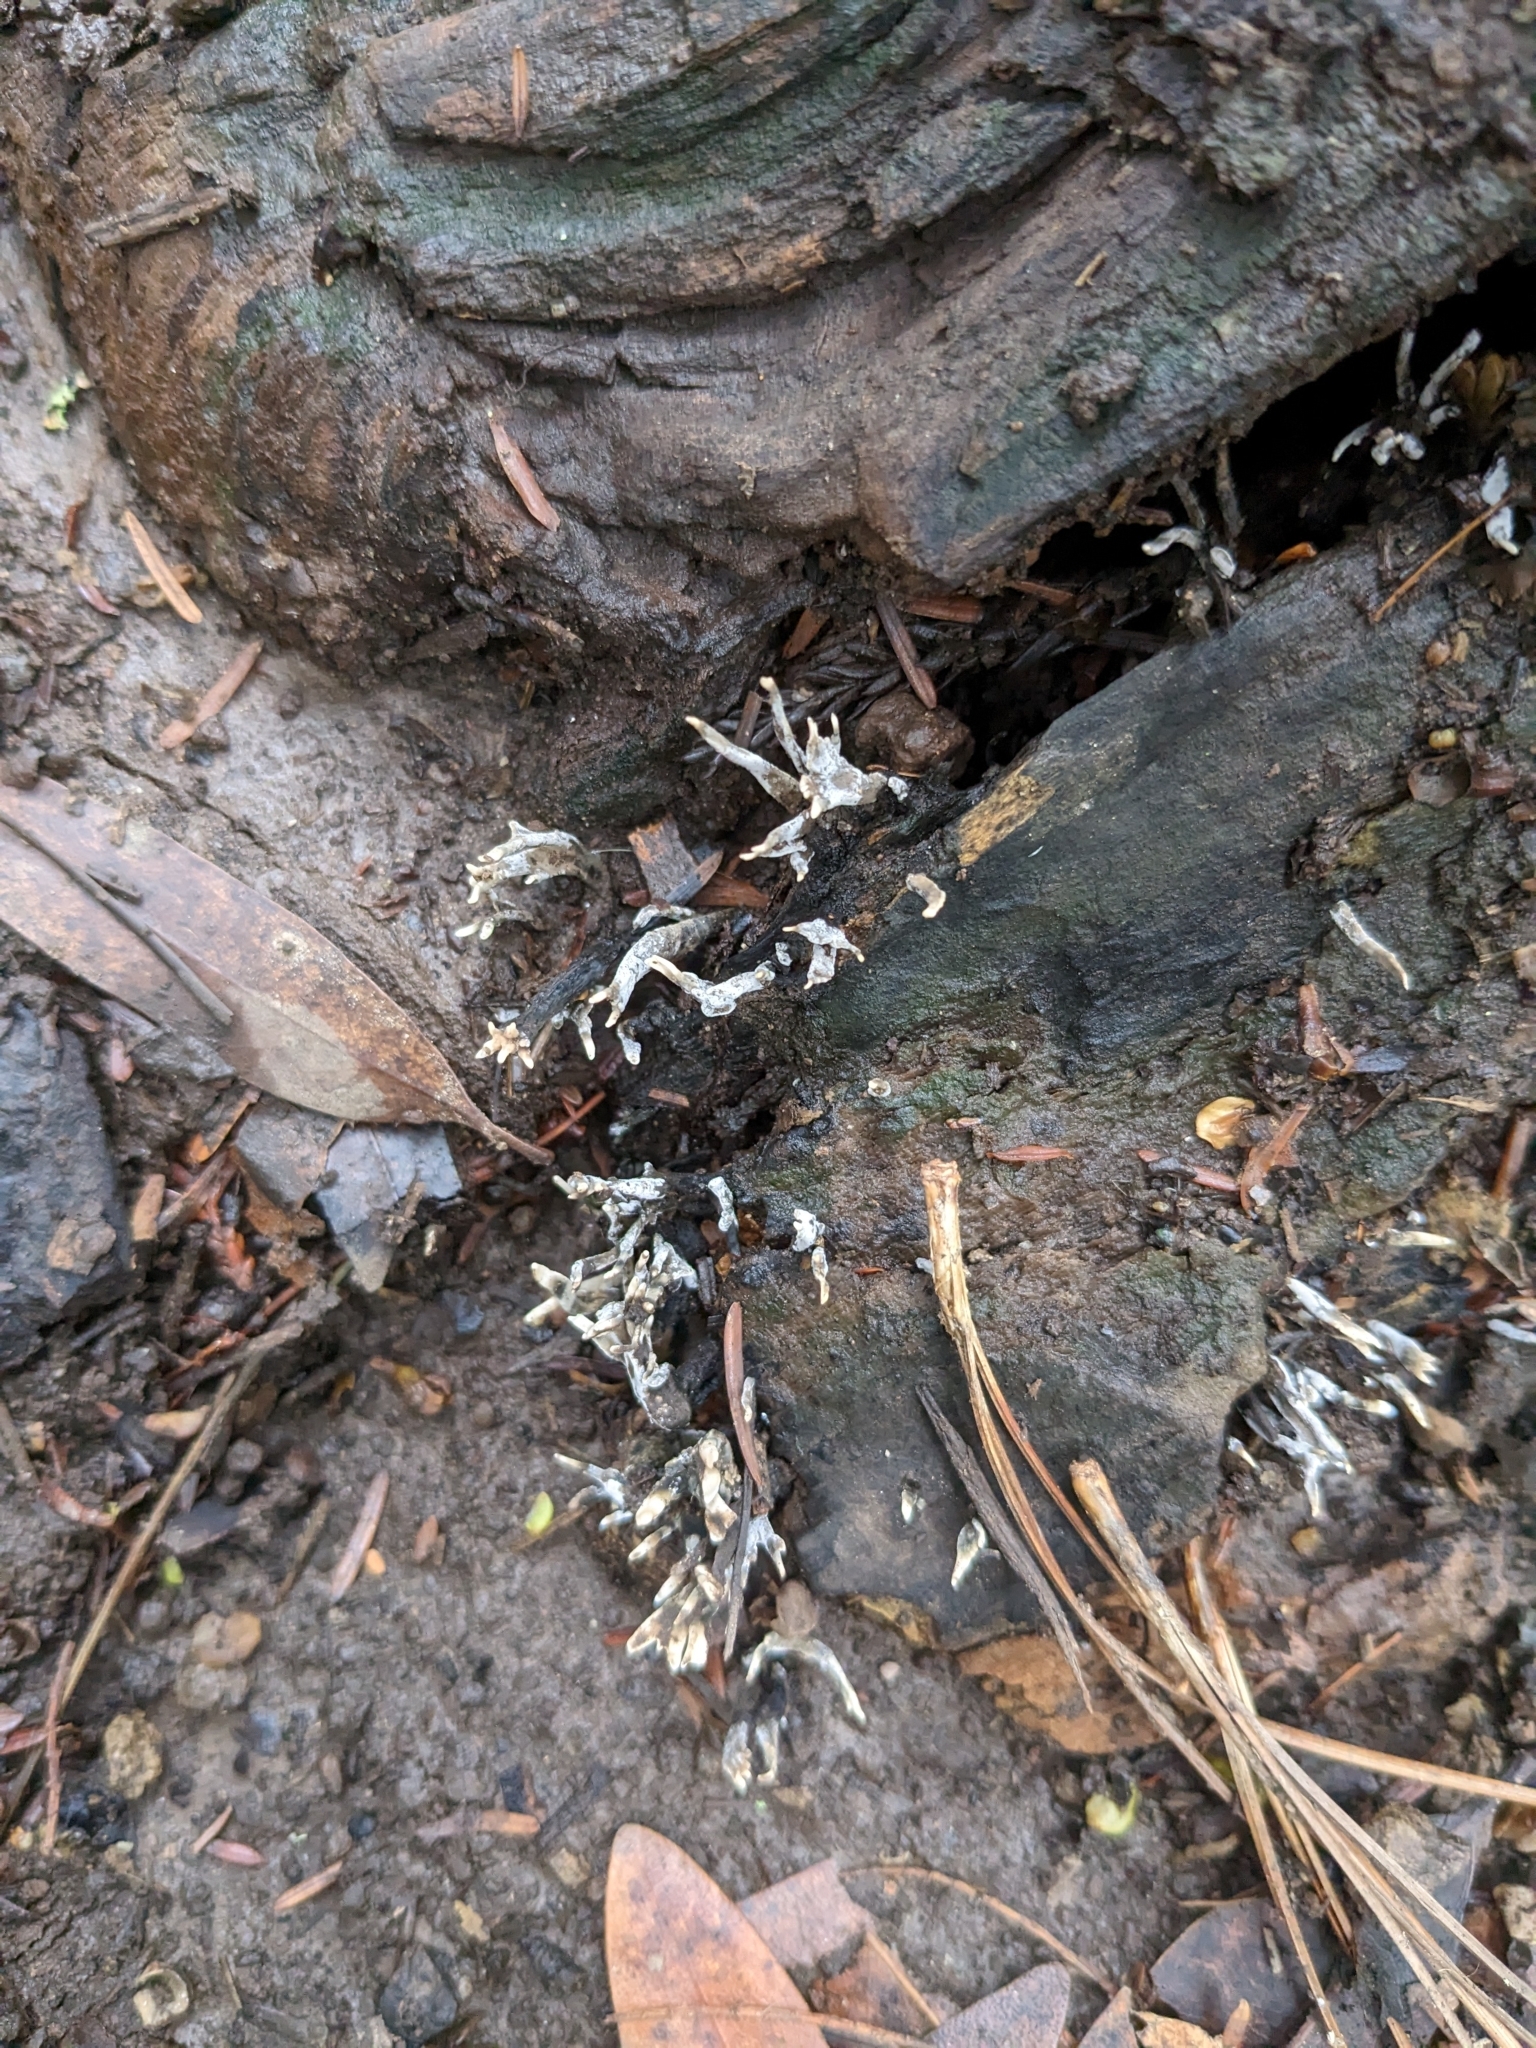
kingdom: Fungi
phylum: Ascomycota
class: Sordariomycetes
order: Xylariales
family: Xylariaceae
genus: Xylaria
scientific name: Xylaria hypoxylon
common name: Candle-snuff fungus
